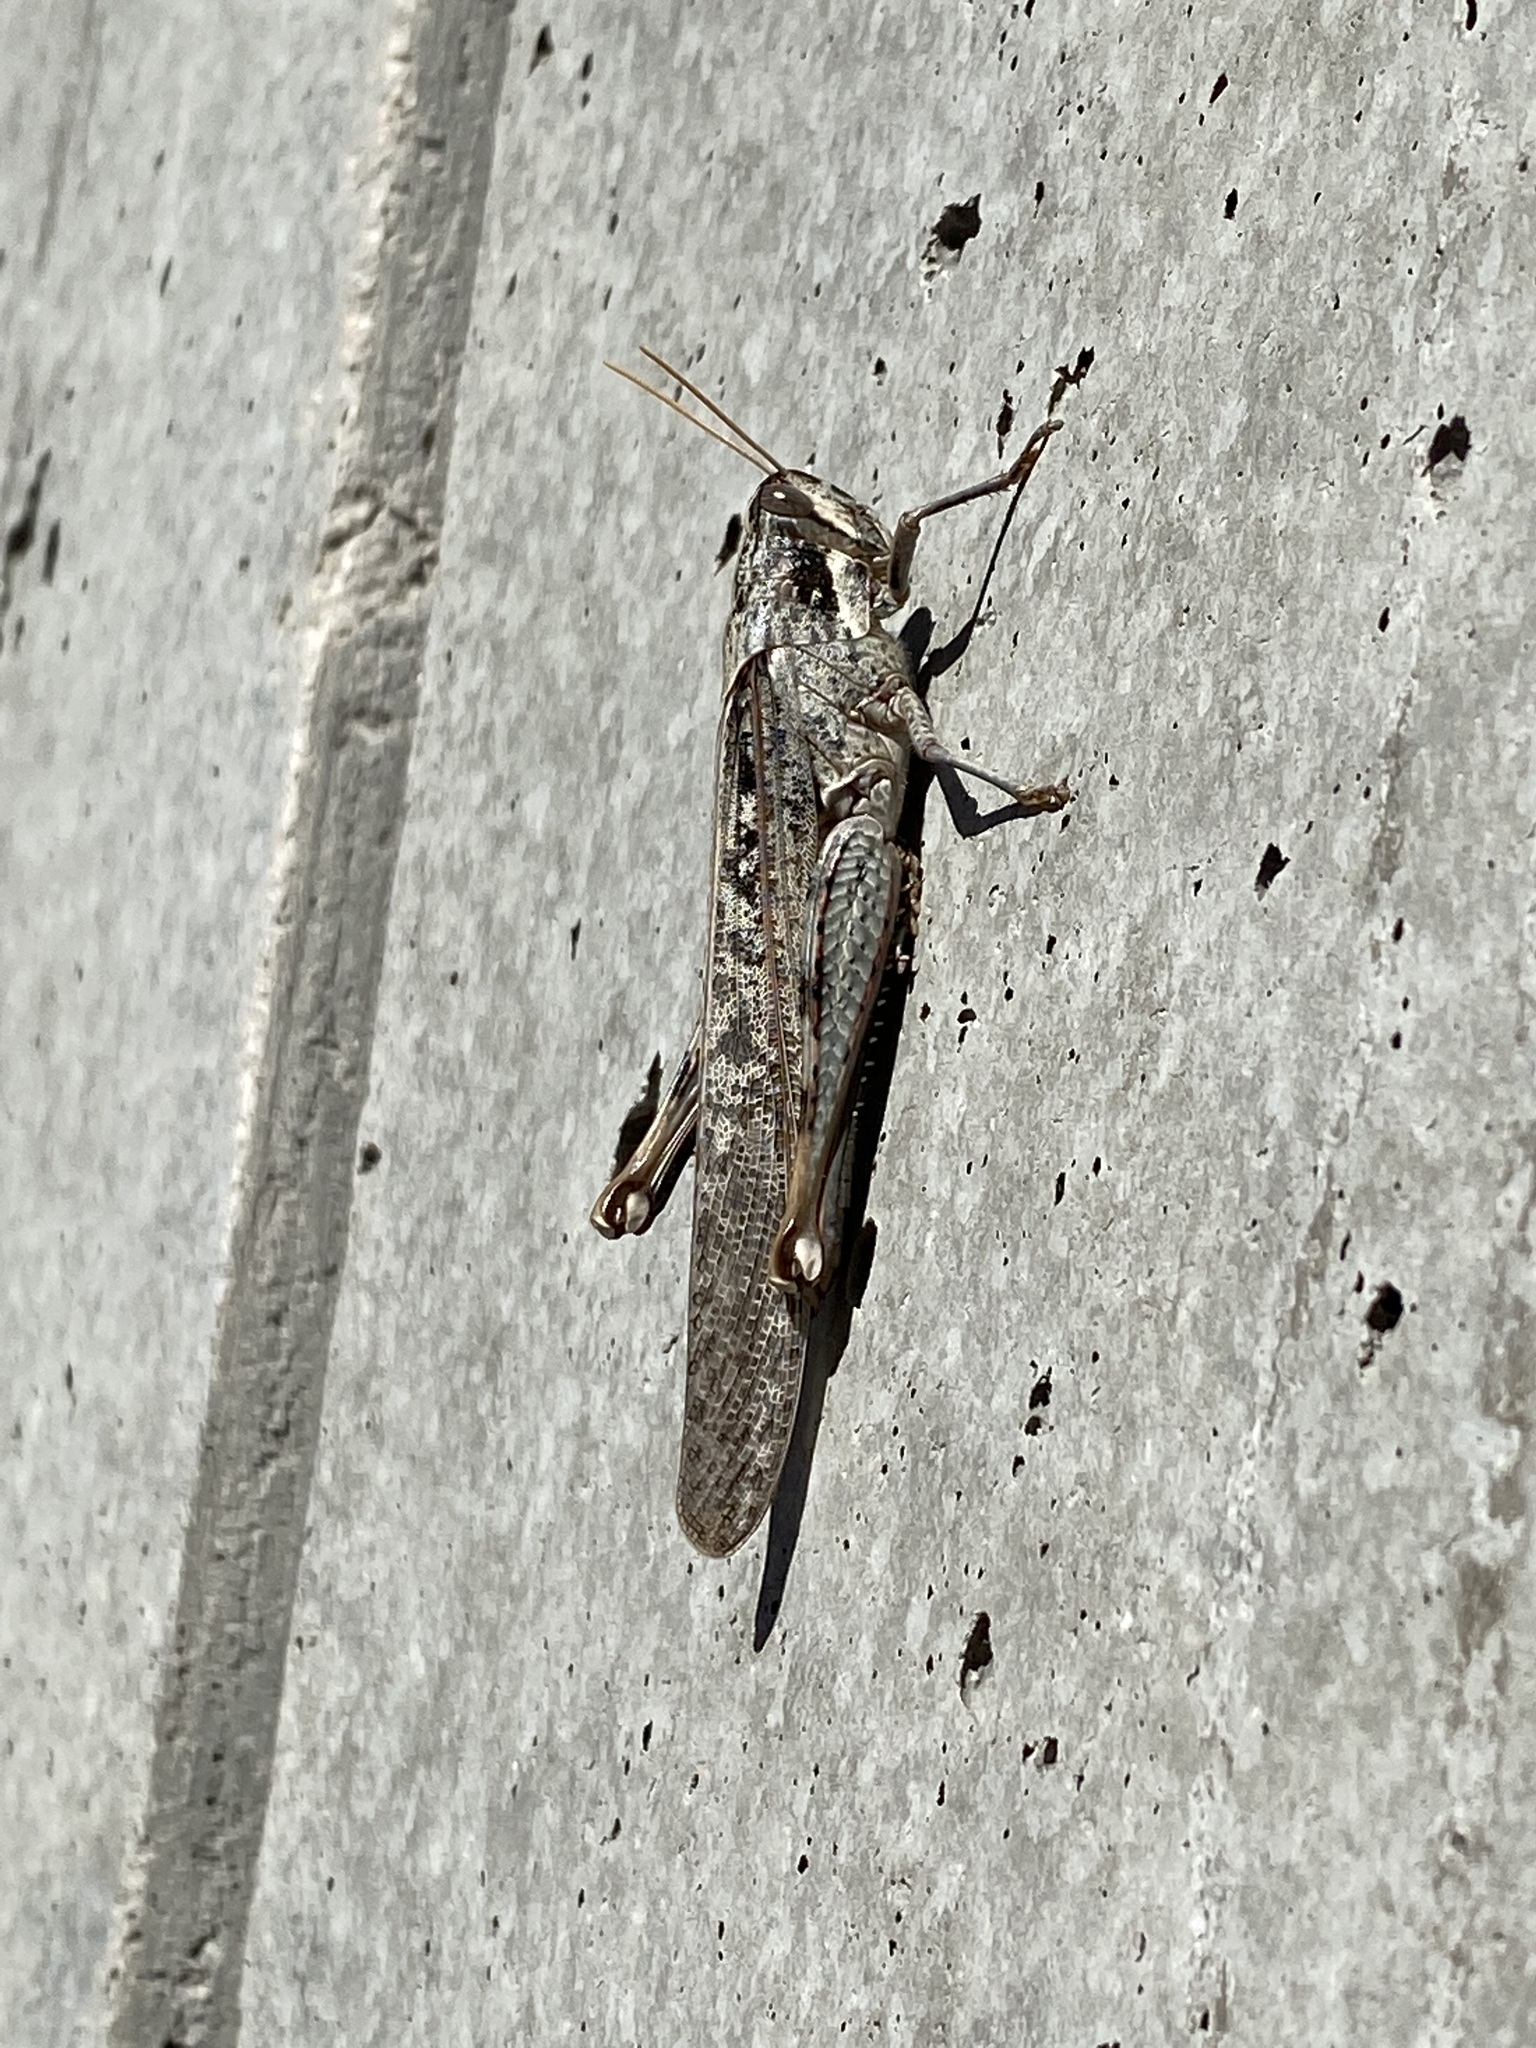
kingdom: Animalia
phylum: Arthropoda
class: Insecta
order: Orthoptera
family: Acrididae
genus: Schistocerca
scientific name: Schistocerca nitens
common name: Vagrant grasshopper
